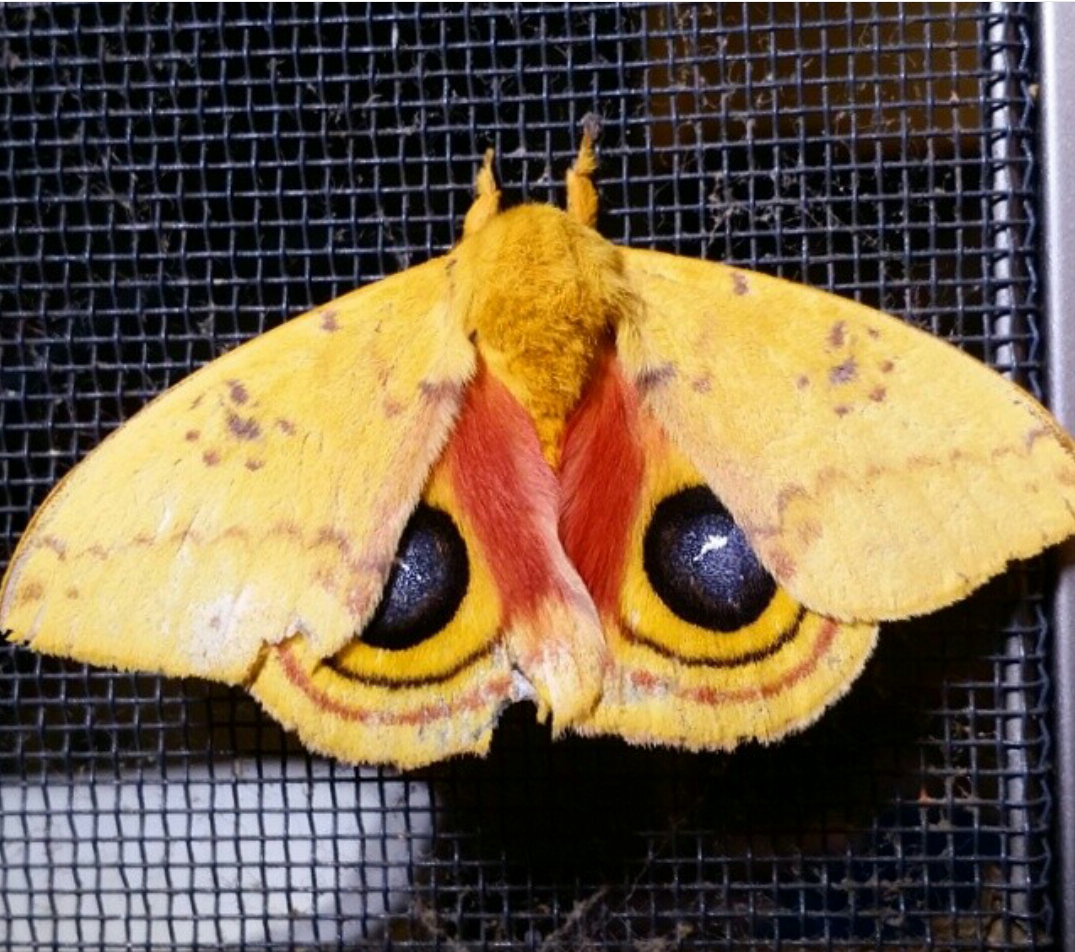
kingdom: Animalia
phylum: Arthropoda
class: Insecta
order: Lepidoptera
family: Saturniidae
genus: Automeris
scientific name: Automeris io
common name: Io moth
